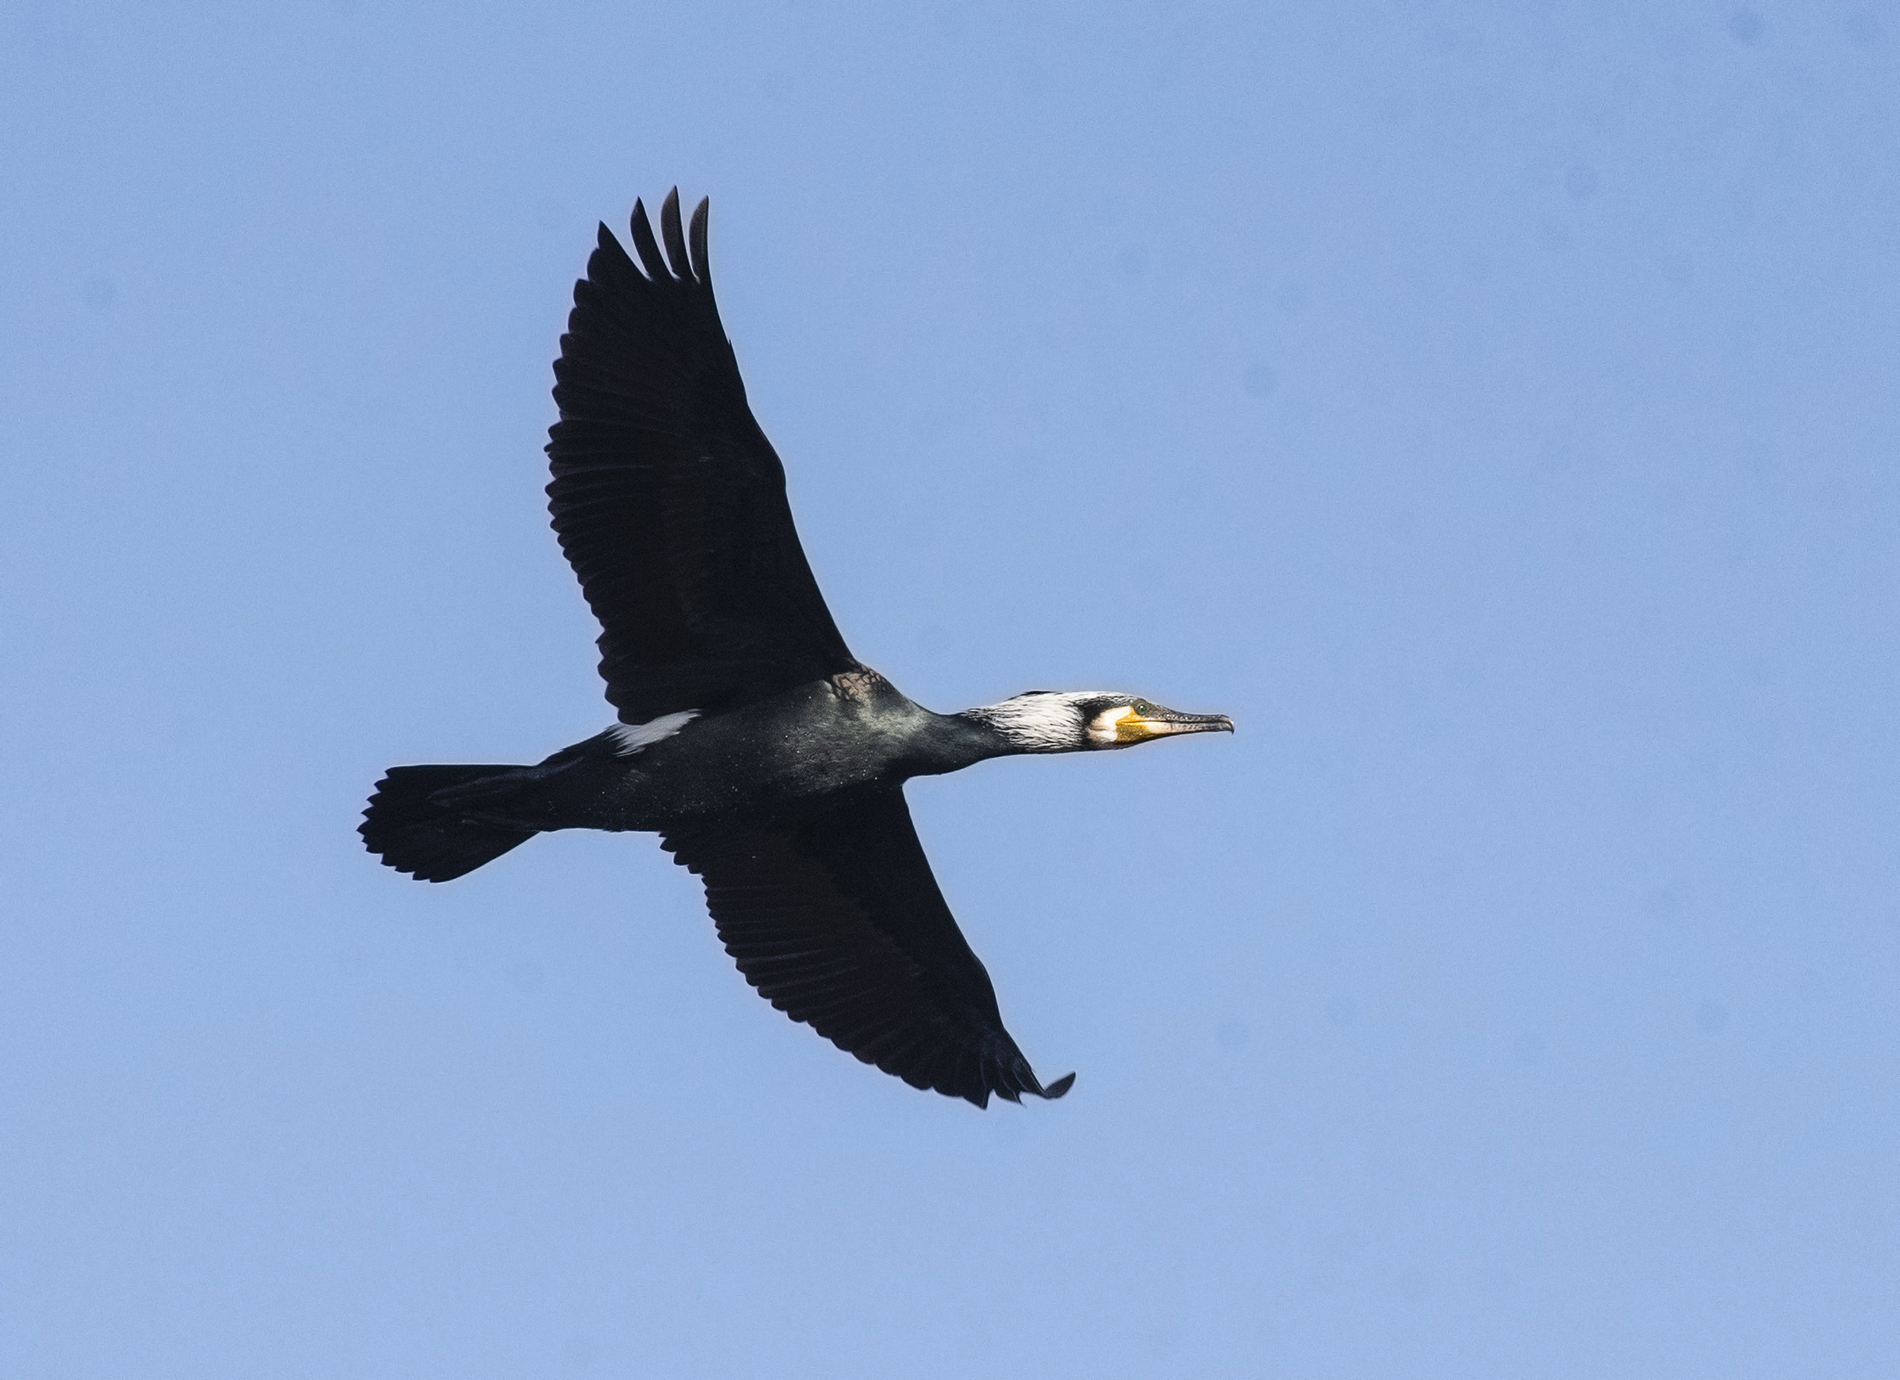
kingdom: Animalia
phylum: Chordata
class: Aves
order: Suliformes
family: Phalacrocoracidae
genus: Phalacrocorax
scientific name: Phalacrocorax carbo
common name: Great cormorant
